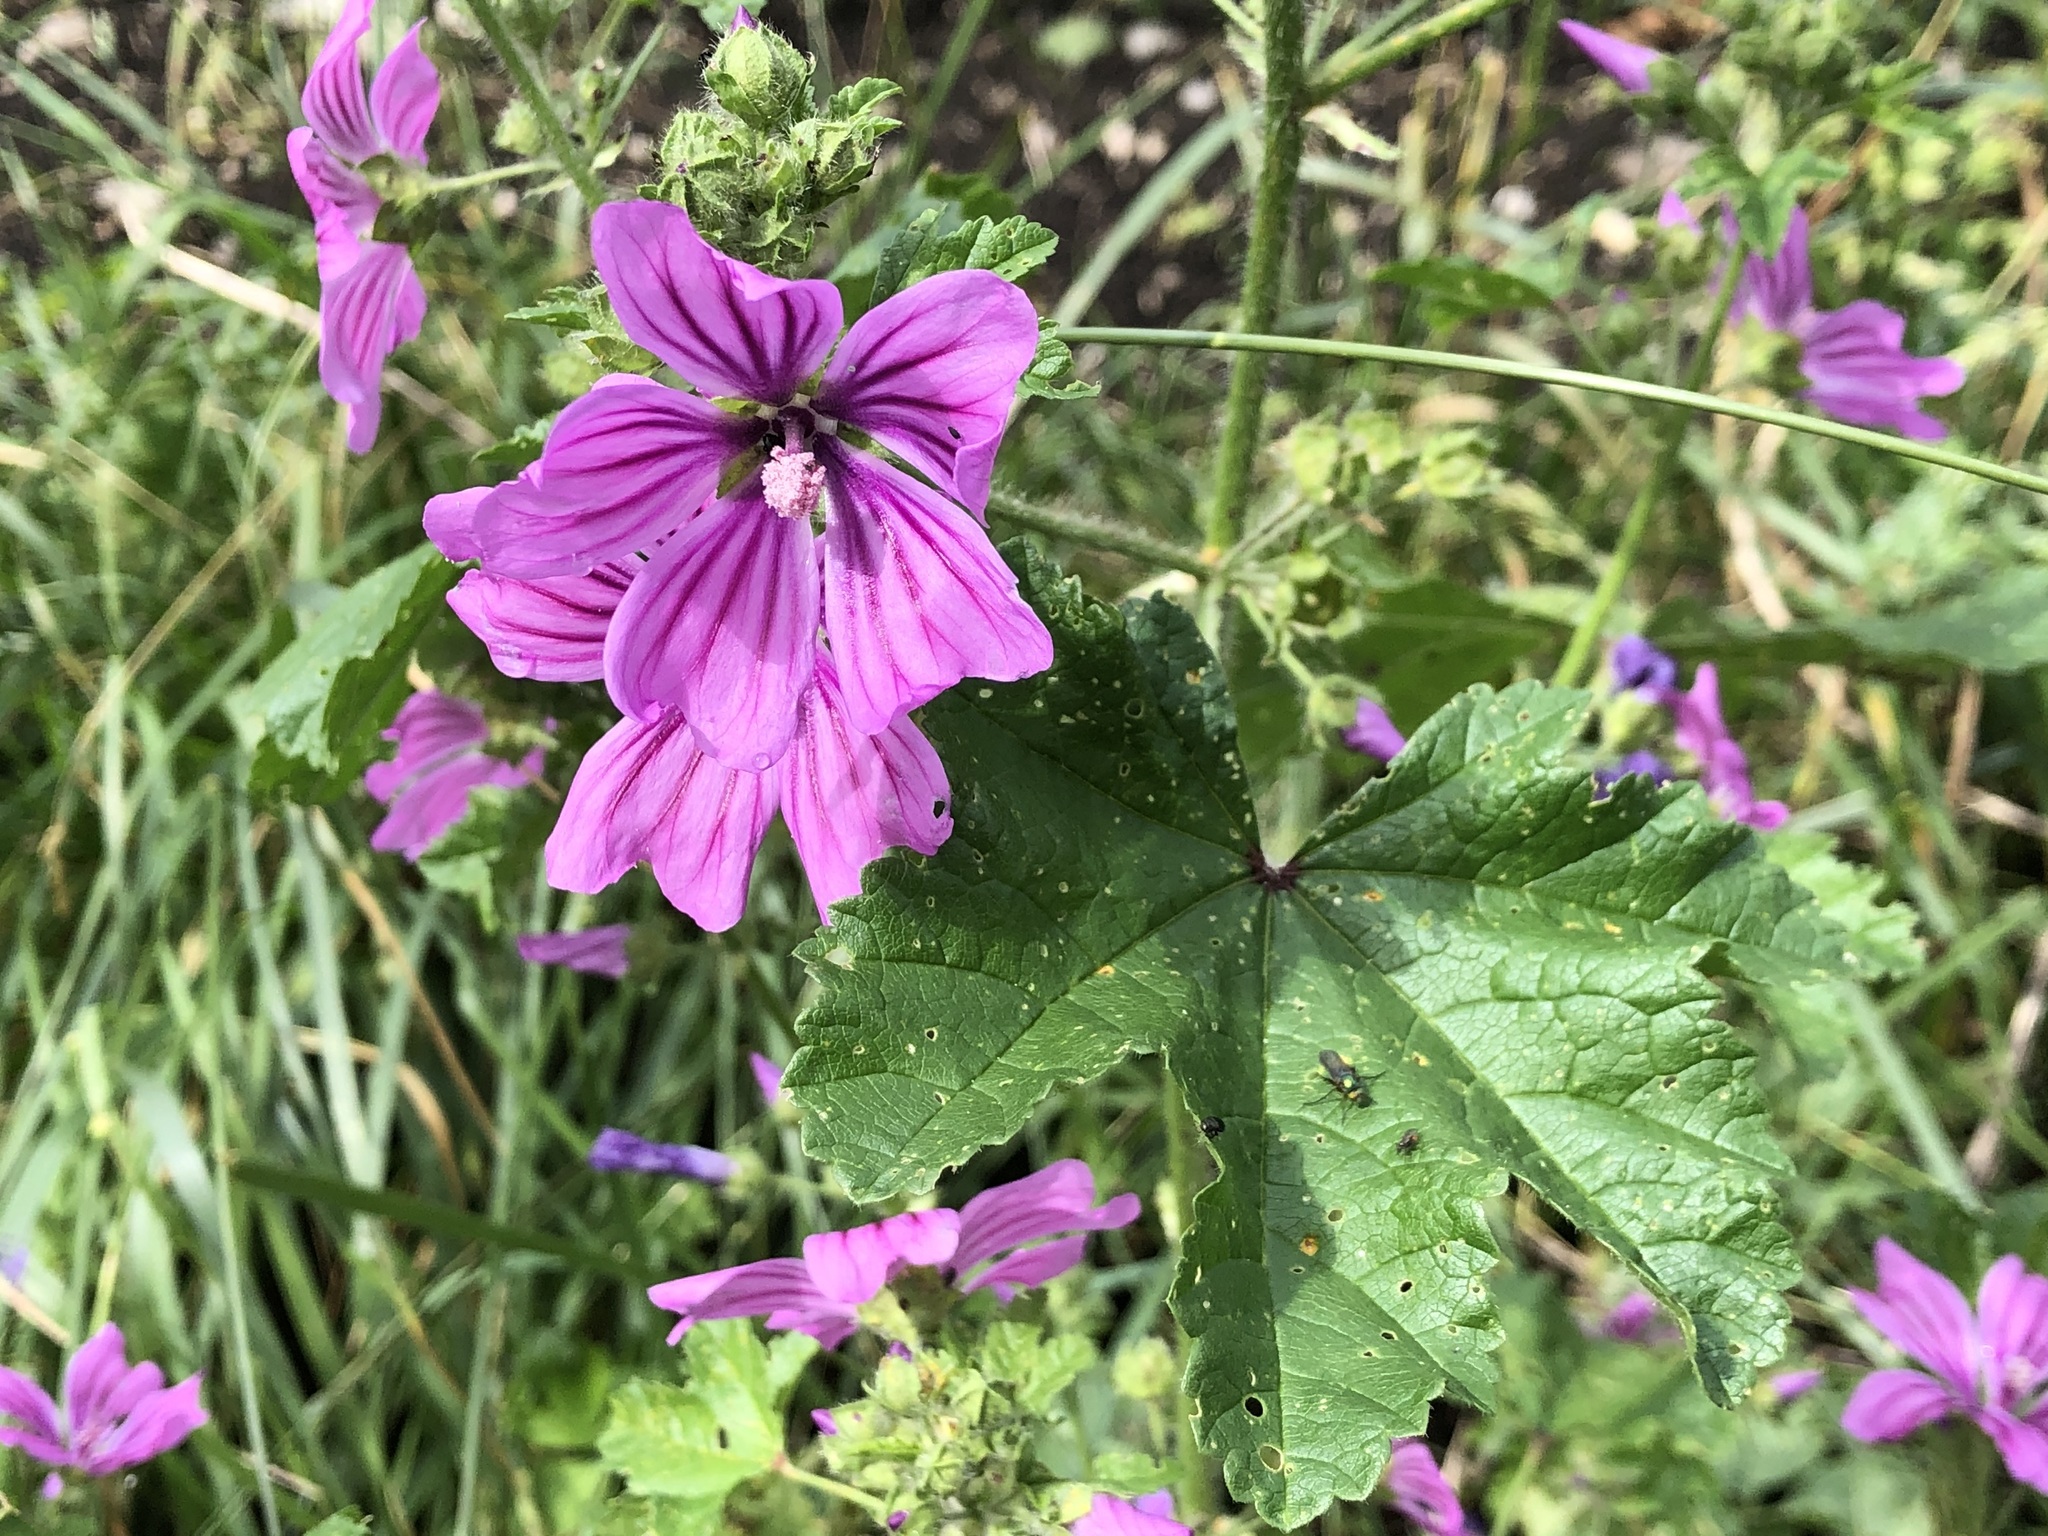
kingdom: Plantae
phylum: Tracheophyta
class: Magnoliopsida
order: Malvales
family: Malvaceae
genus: Malva
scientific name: Malva sylvestris
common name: Common mallow
